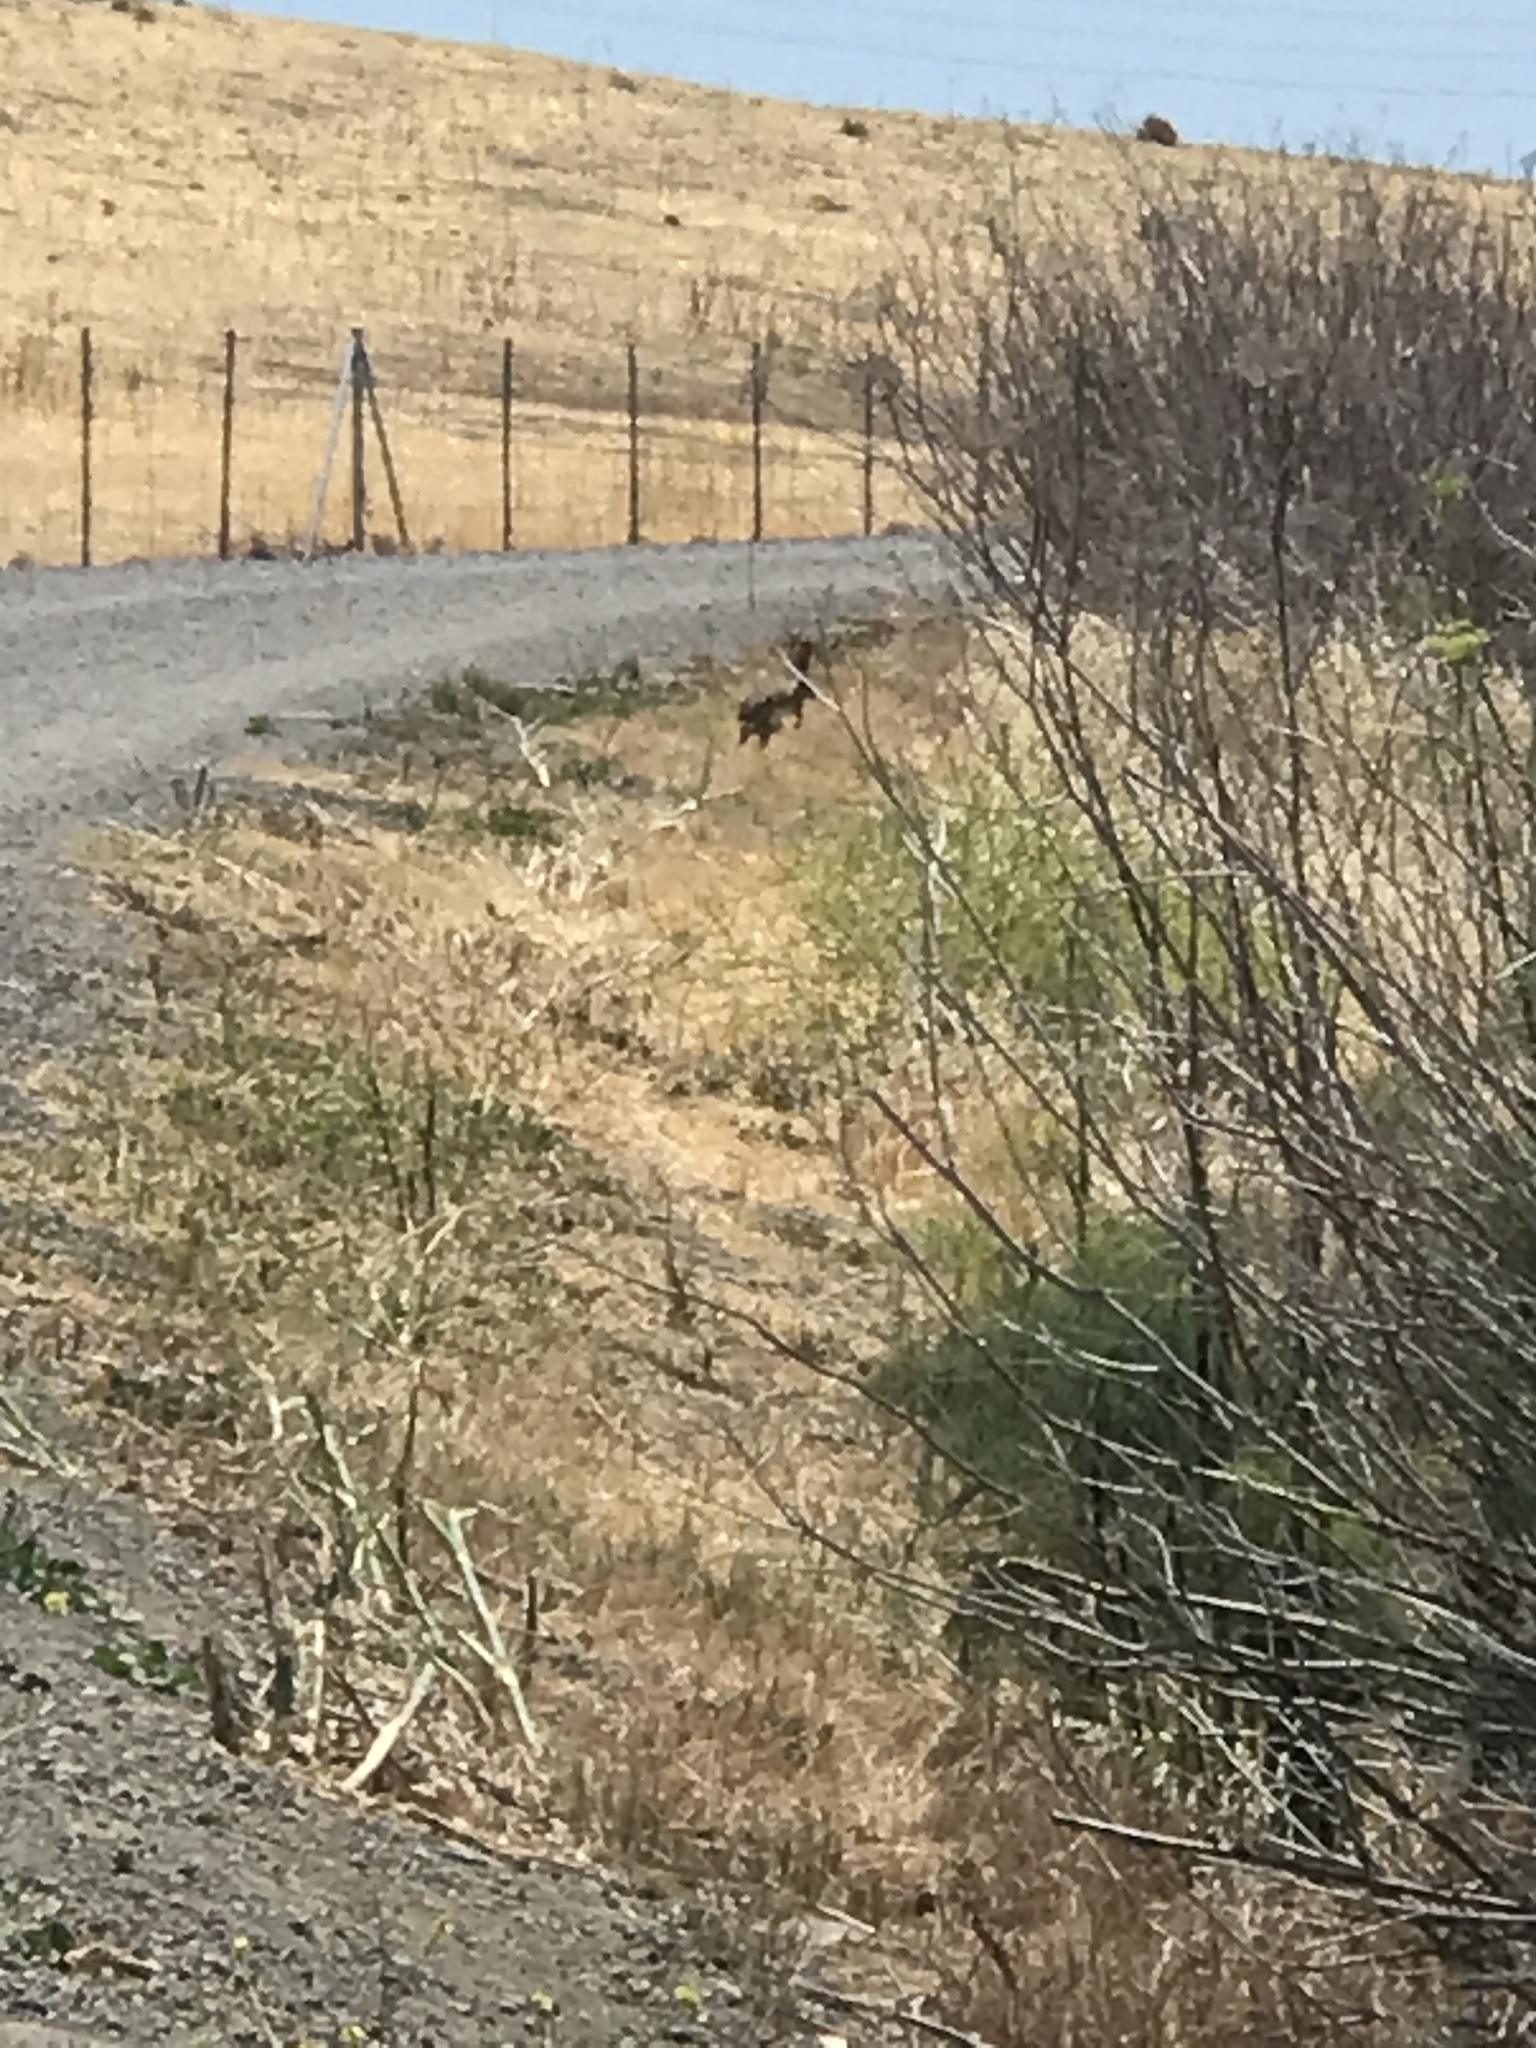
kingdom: Animalia
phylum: Chordata
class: Mammalia
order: Lagomorpha
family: Leporidae
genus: Lepus
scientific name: Lepus californicus
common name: Black-tailed jackrabbit
